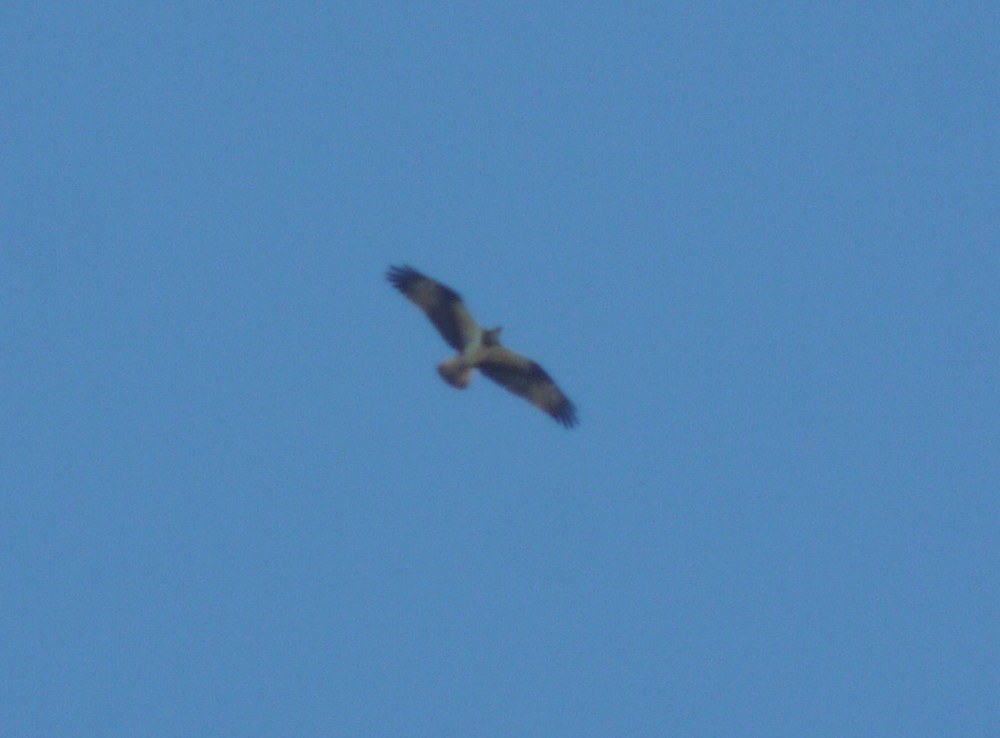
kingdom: Animalia
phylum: Chordata
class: Aves
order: Accipitriformes
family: Pandionidae
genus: Pandion
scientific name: Pandion haliaetus
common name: Osprey
